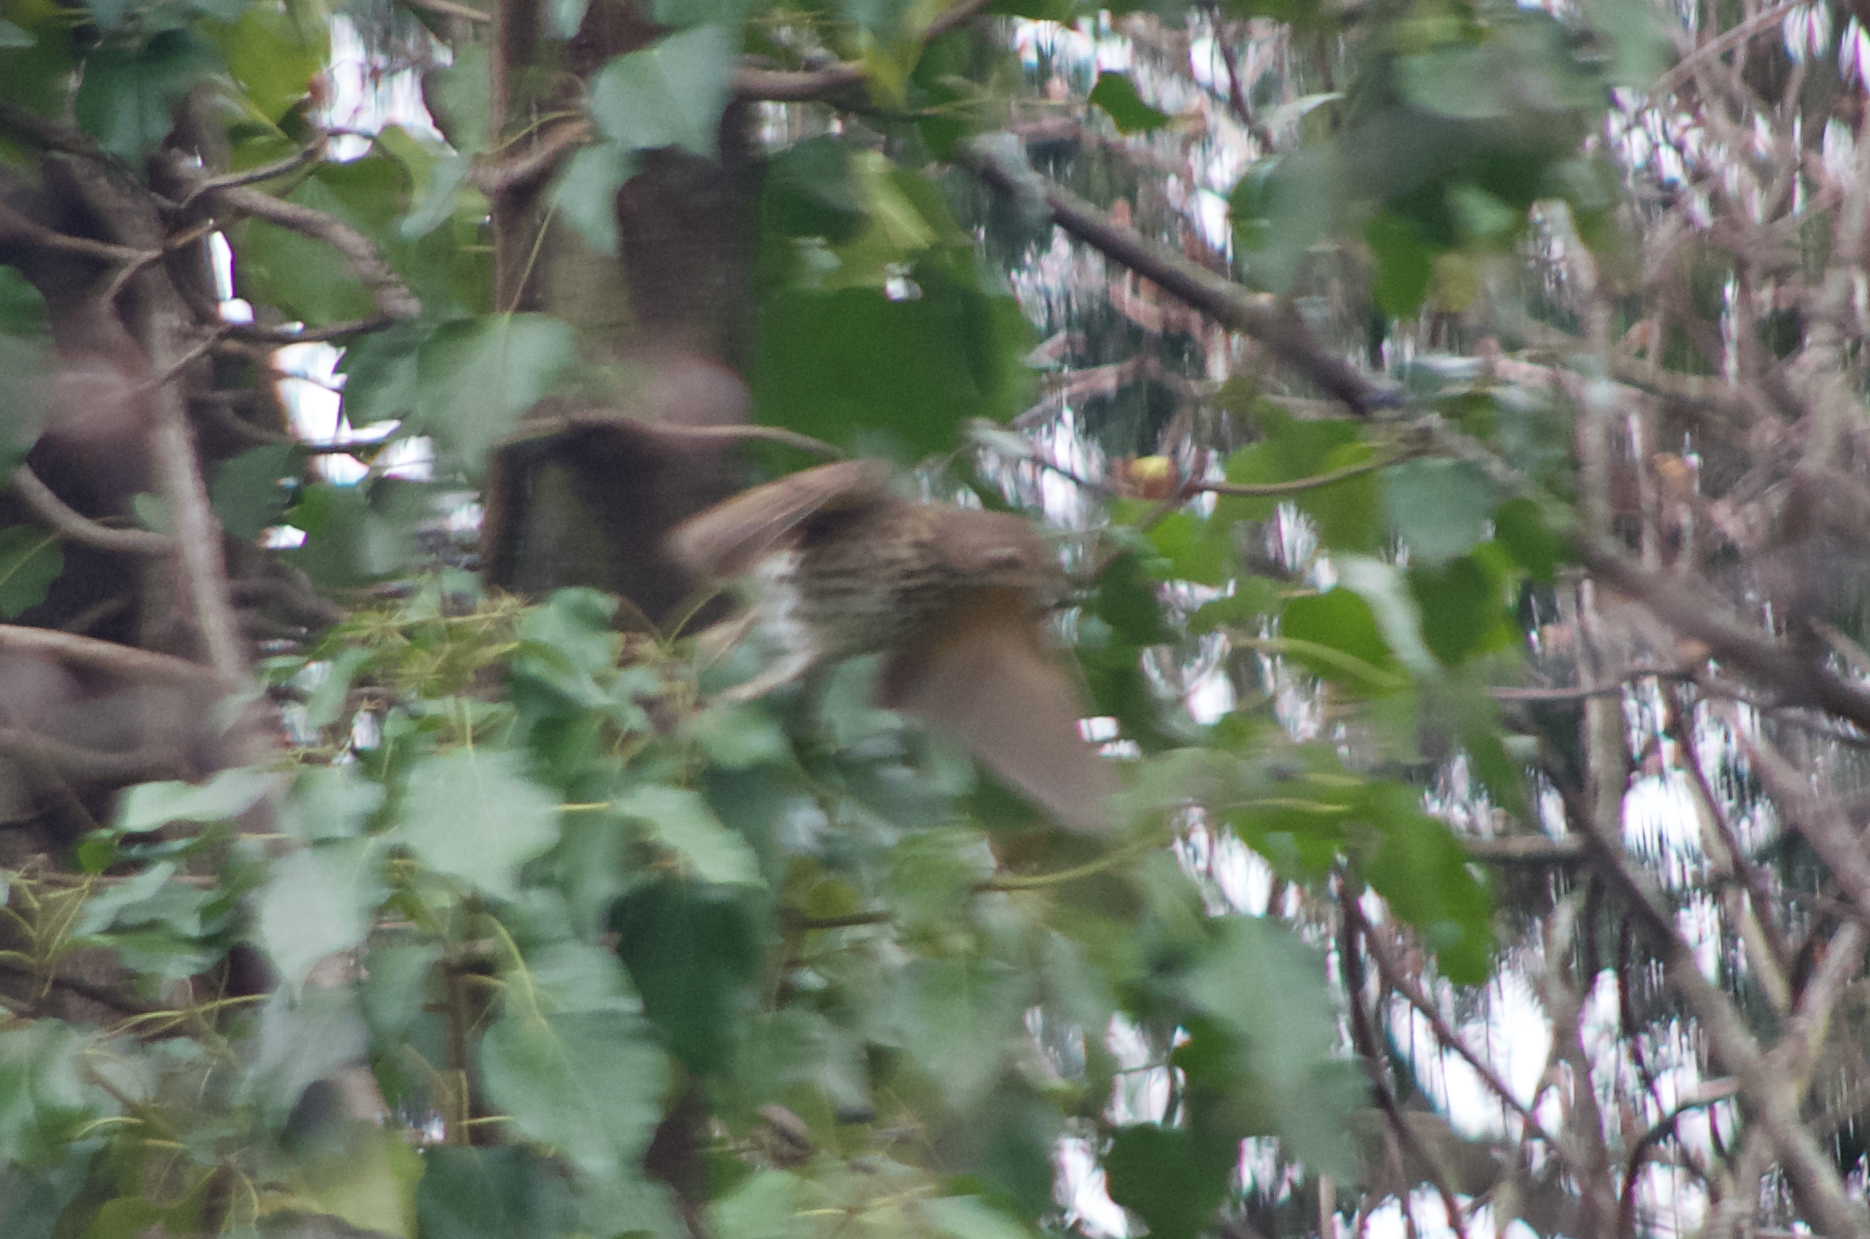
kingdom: Animalia
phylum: Chordata
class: Aves
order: Passeriformes
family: Turdidae
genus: Turdus
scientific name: Turdus philomelos
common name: Song thrush
